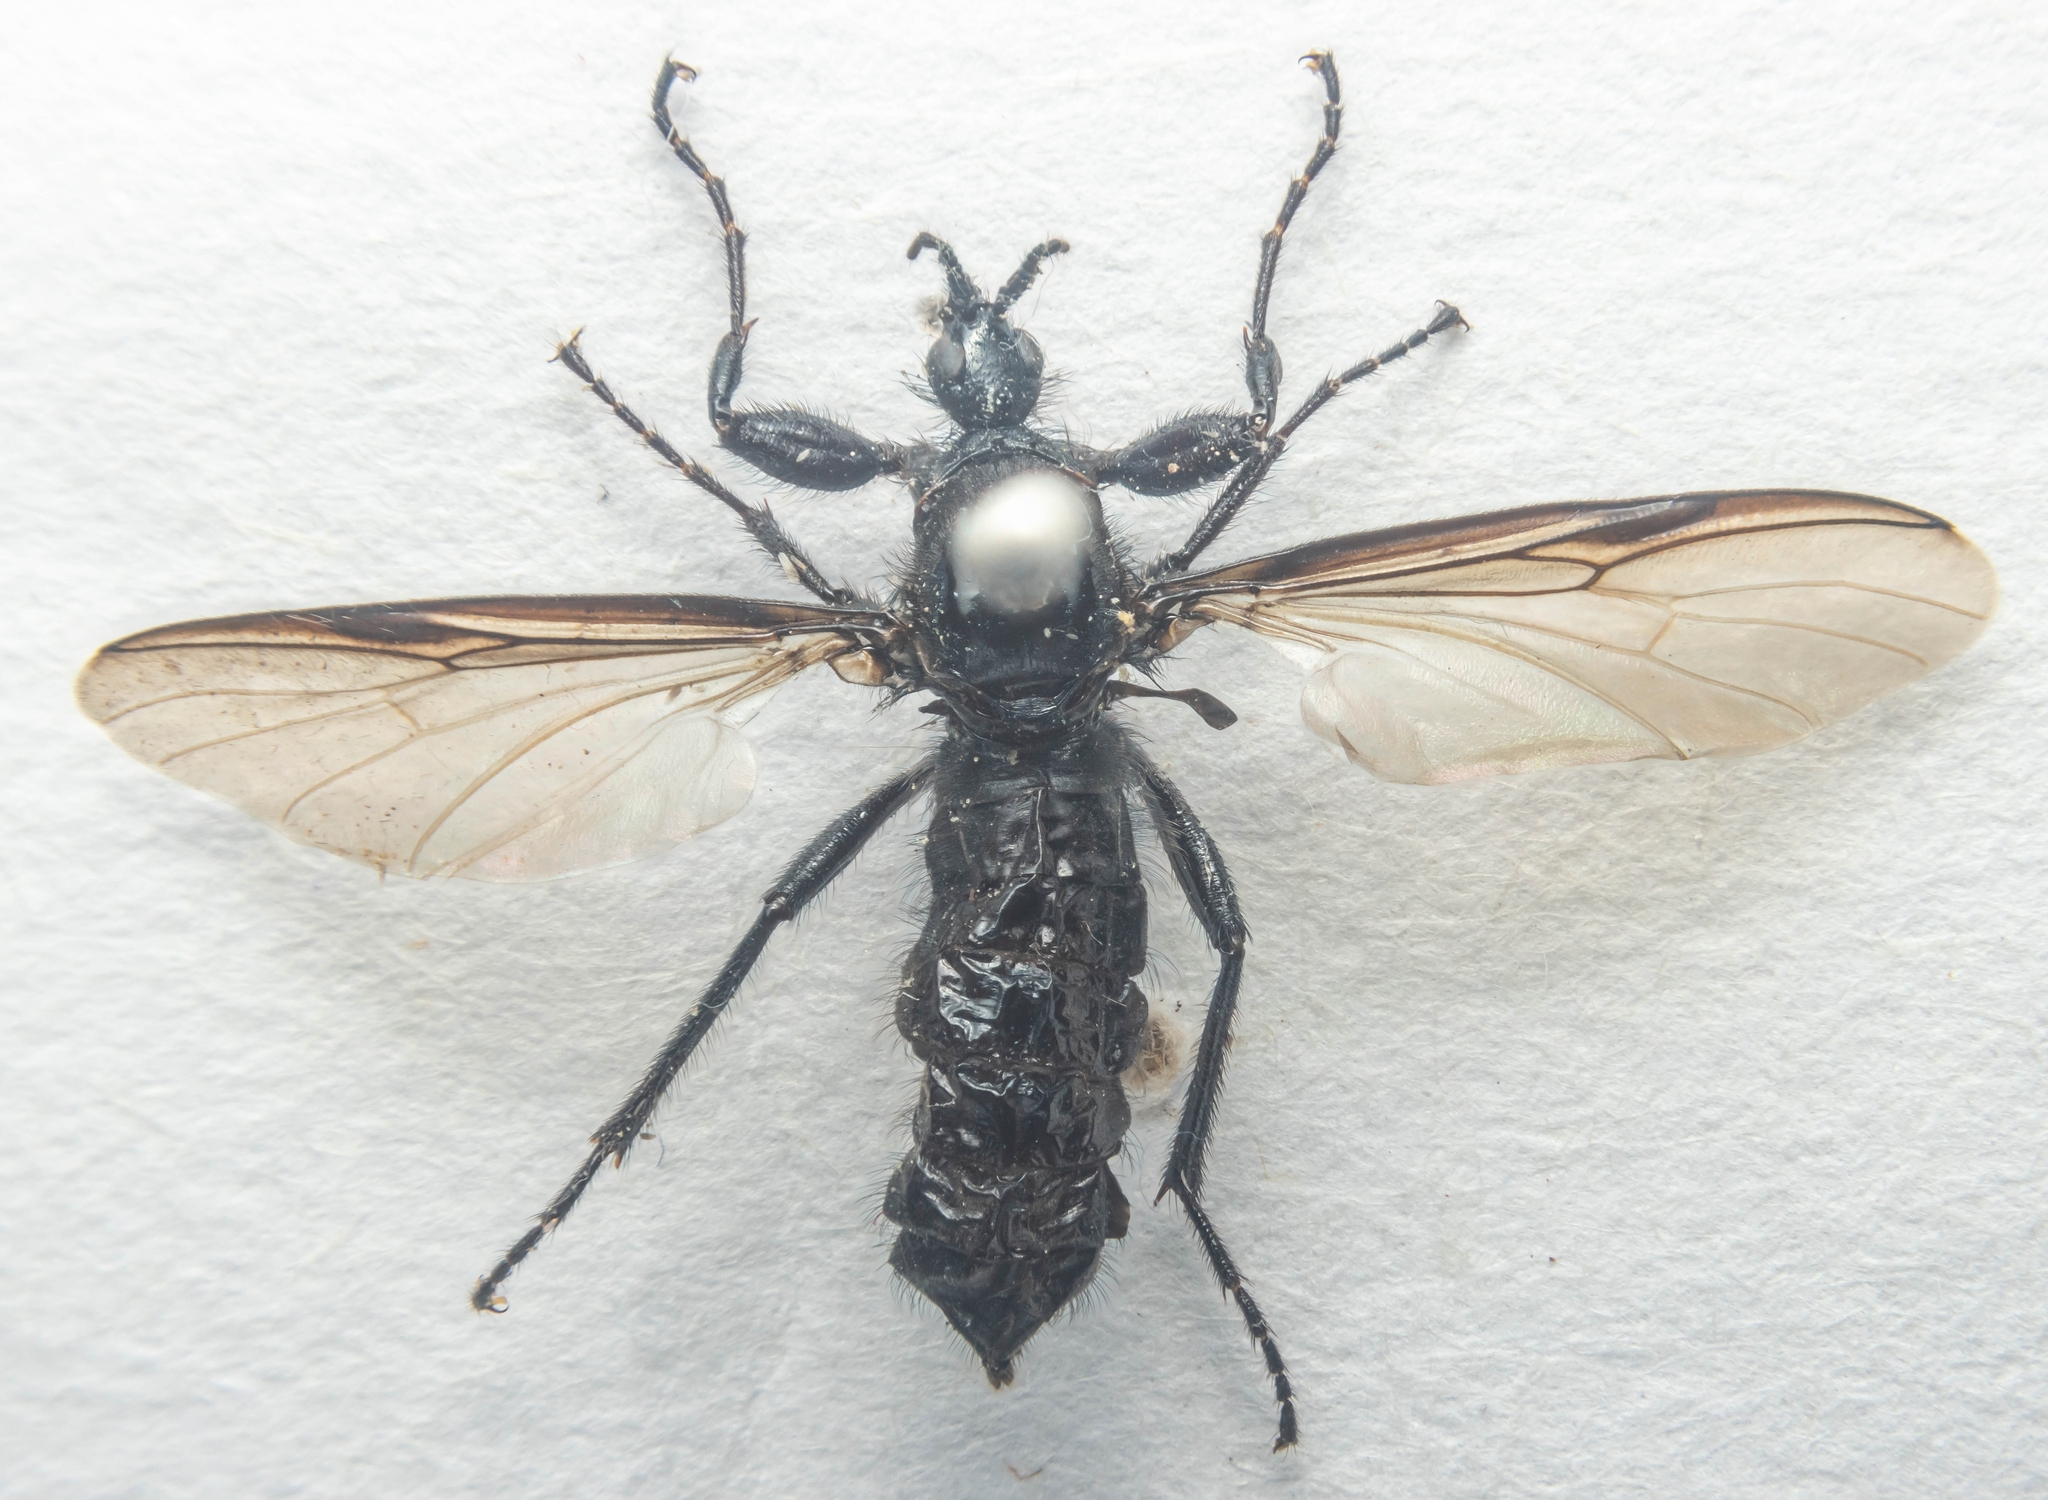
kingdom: Animalia
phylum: Arthropoda
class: Insecta
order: Diptera
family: Bibionidae
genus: Bibio
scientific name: Bibio marci
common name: St marks fly
